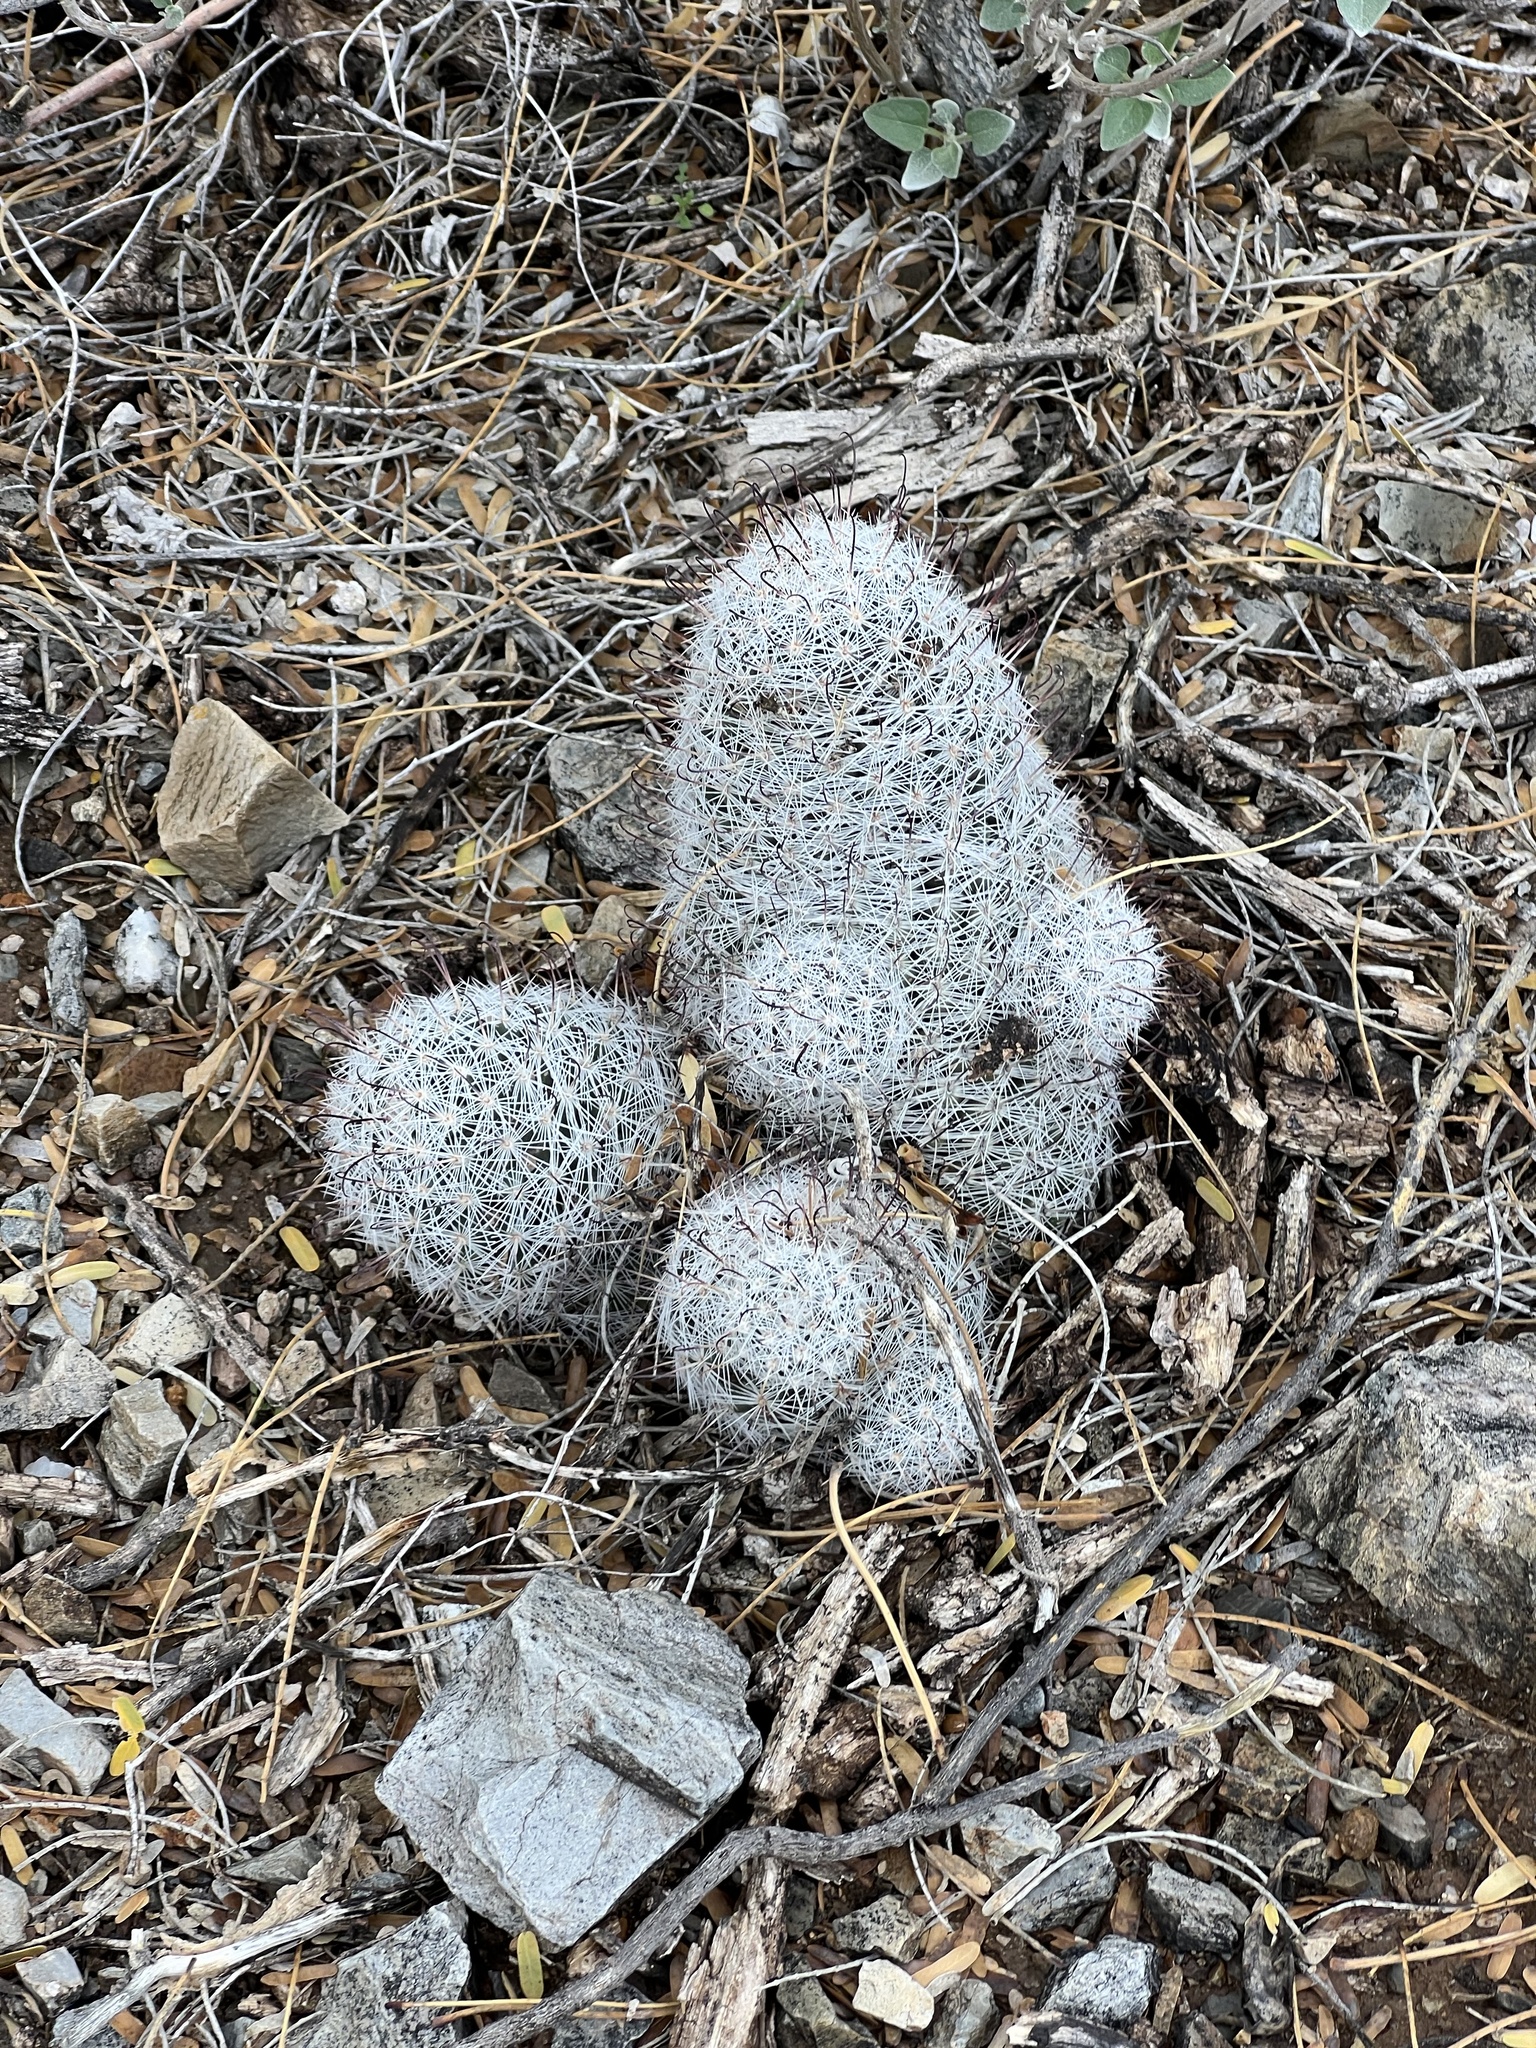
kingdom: Plantae
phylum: Tracheophyta
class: Magnoliopsida
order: Caryophyllales
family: Cactaceae
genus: Cochemiea
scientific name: Cochemiea grahamii
